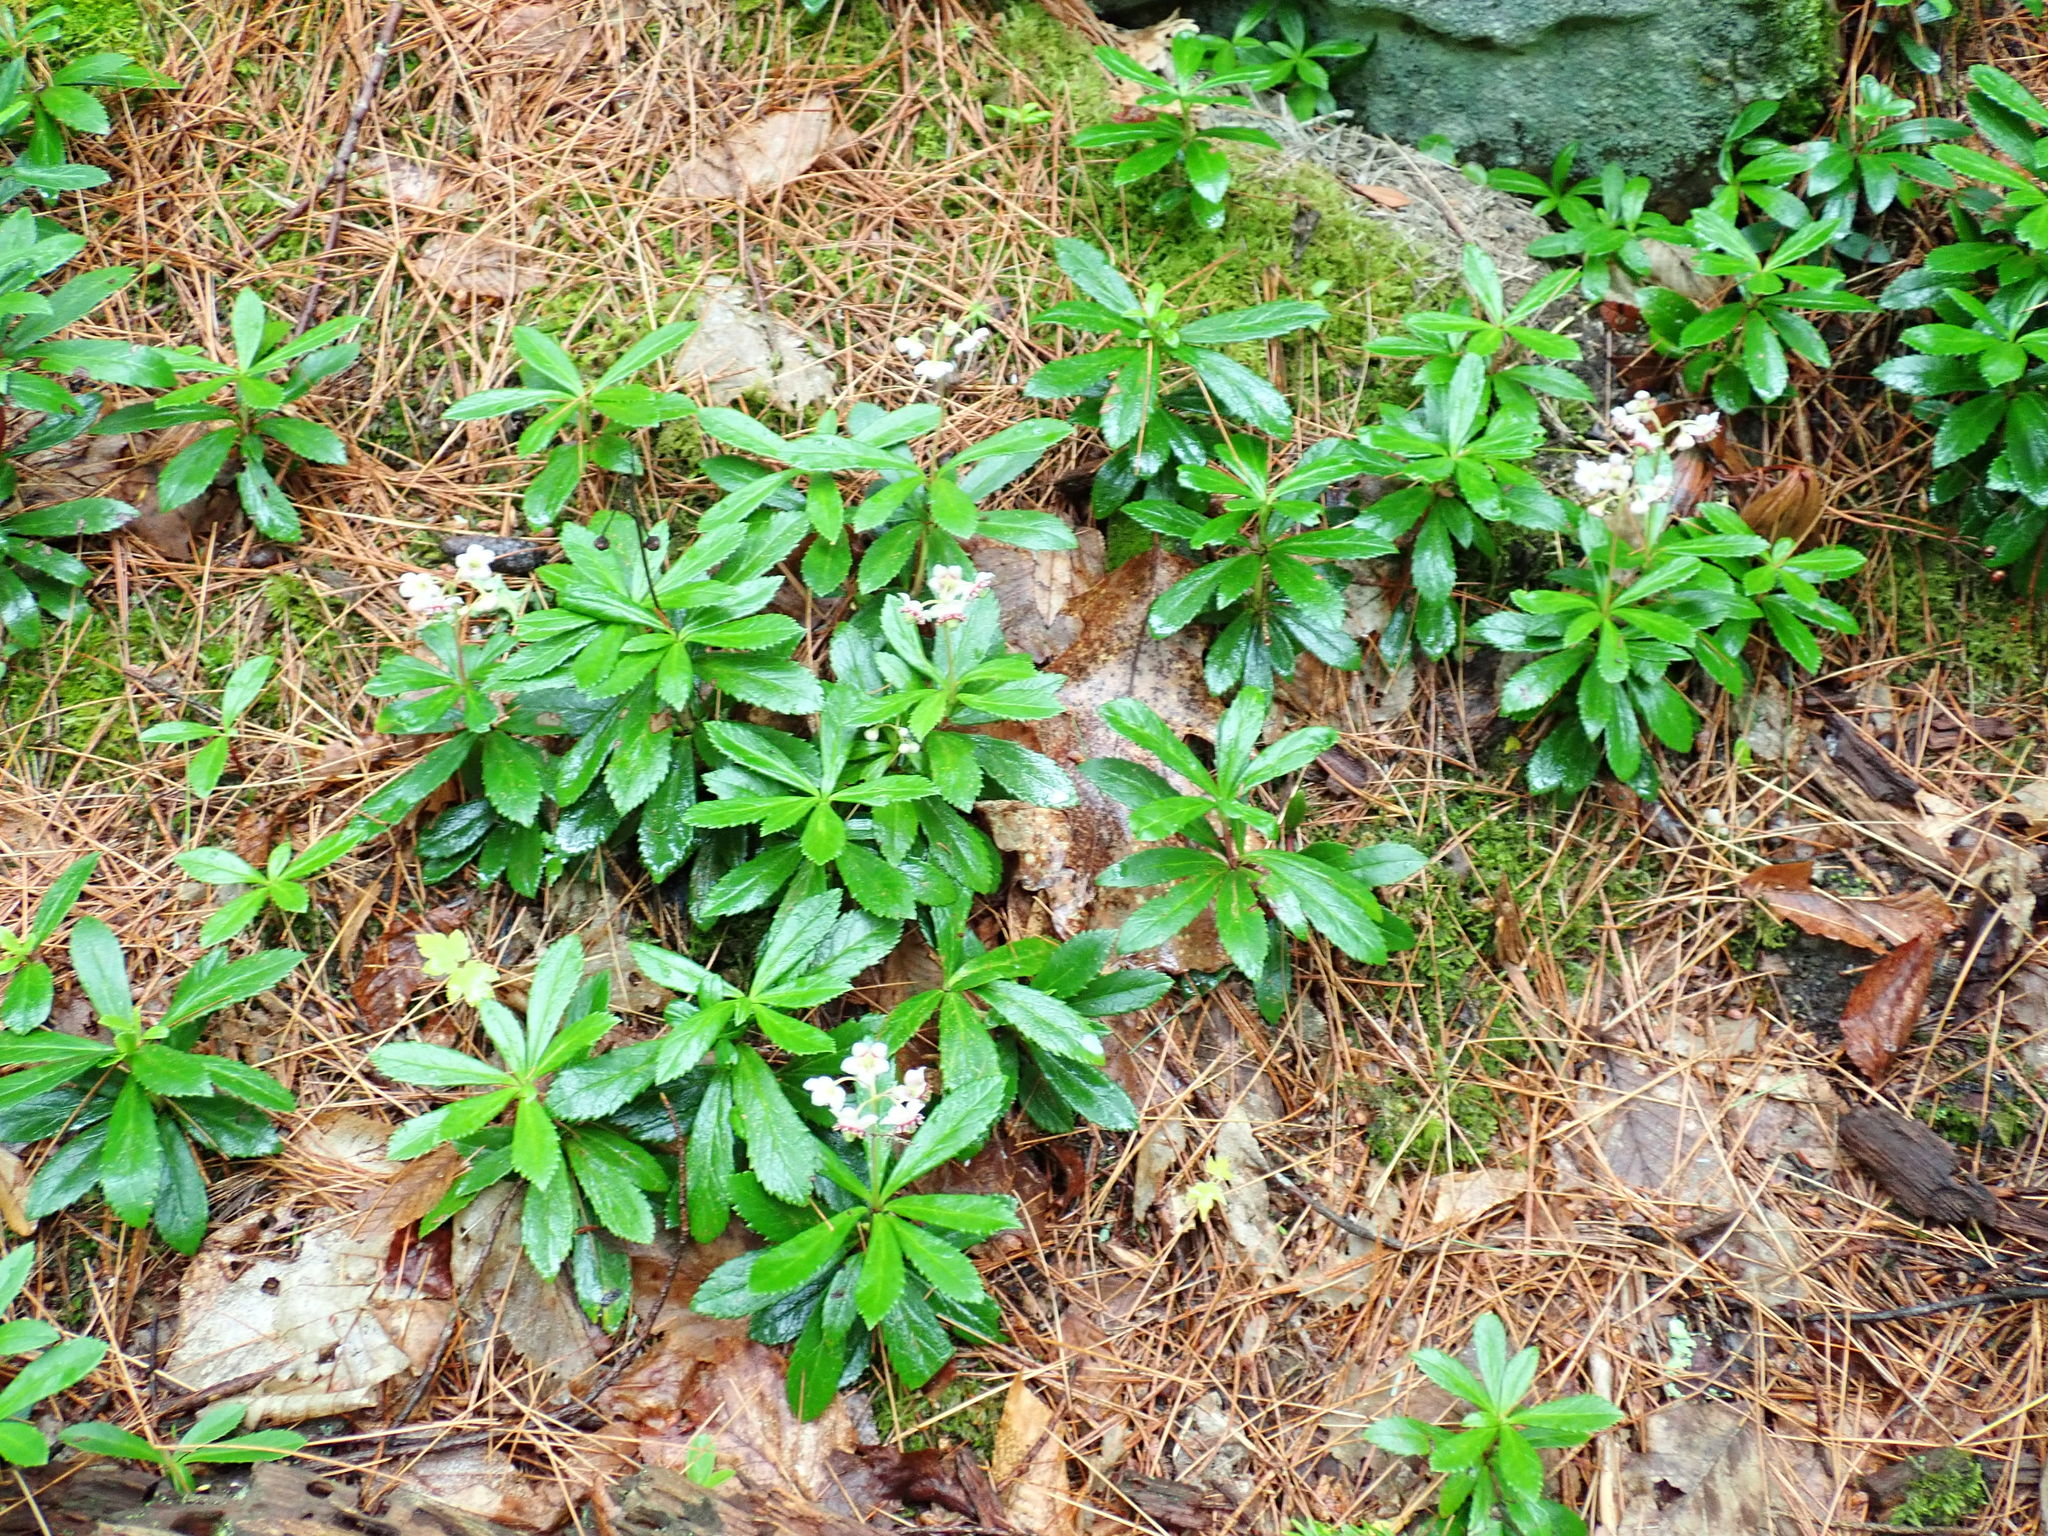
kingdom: Plantae
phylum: Tracheophyta
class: Magnoliopsida
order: Ericales
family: Ericaceae
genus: Chimaphila
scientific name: Chimaphila umbellata
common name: Pipsissewa
